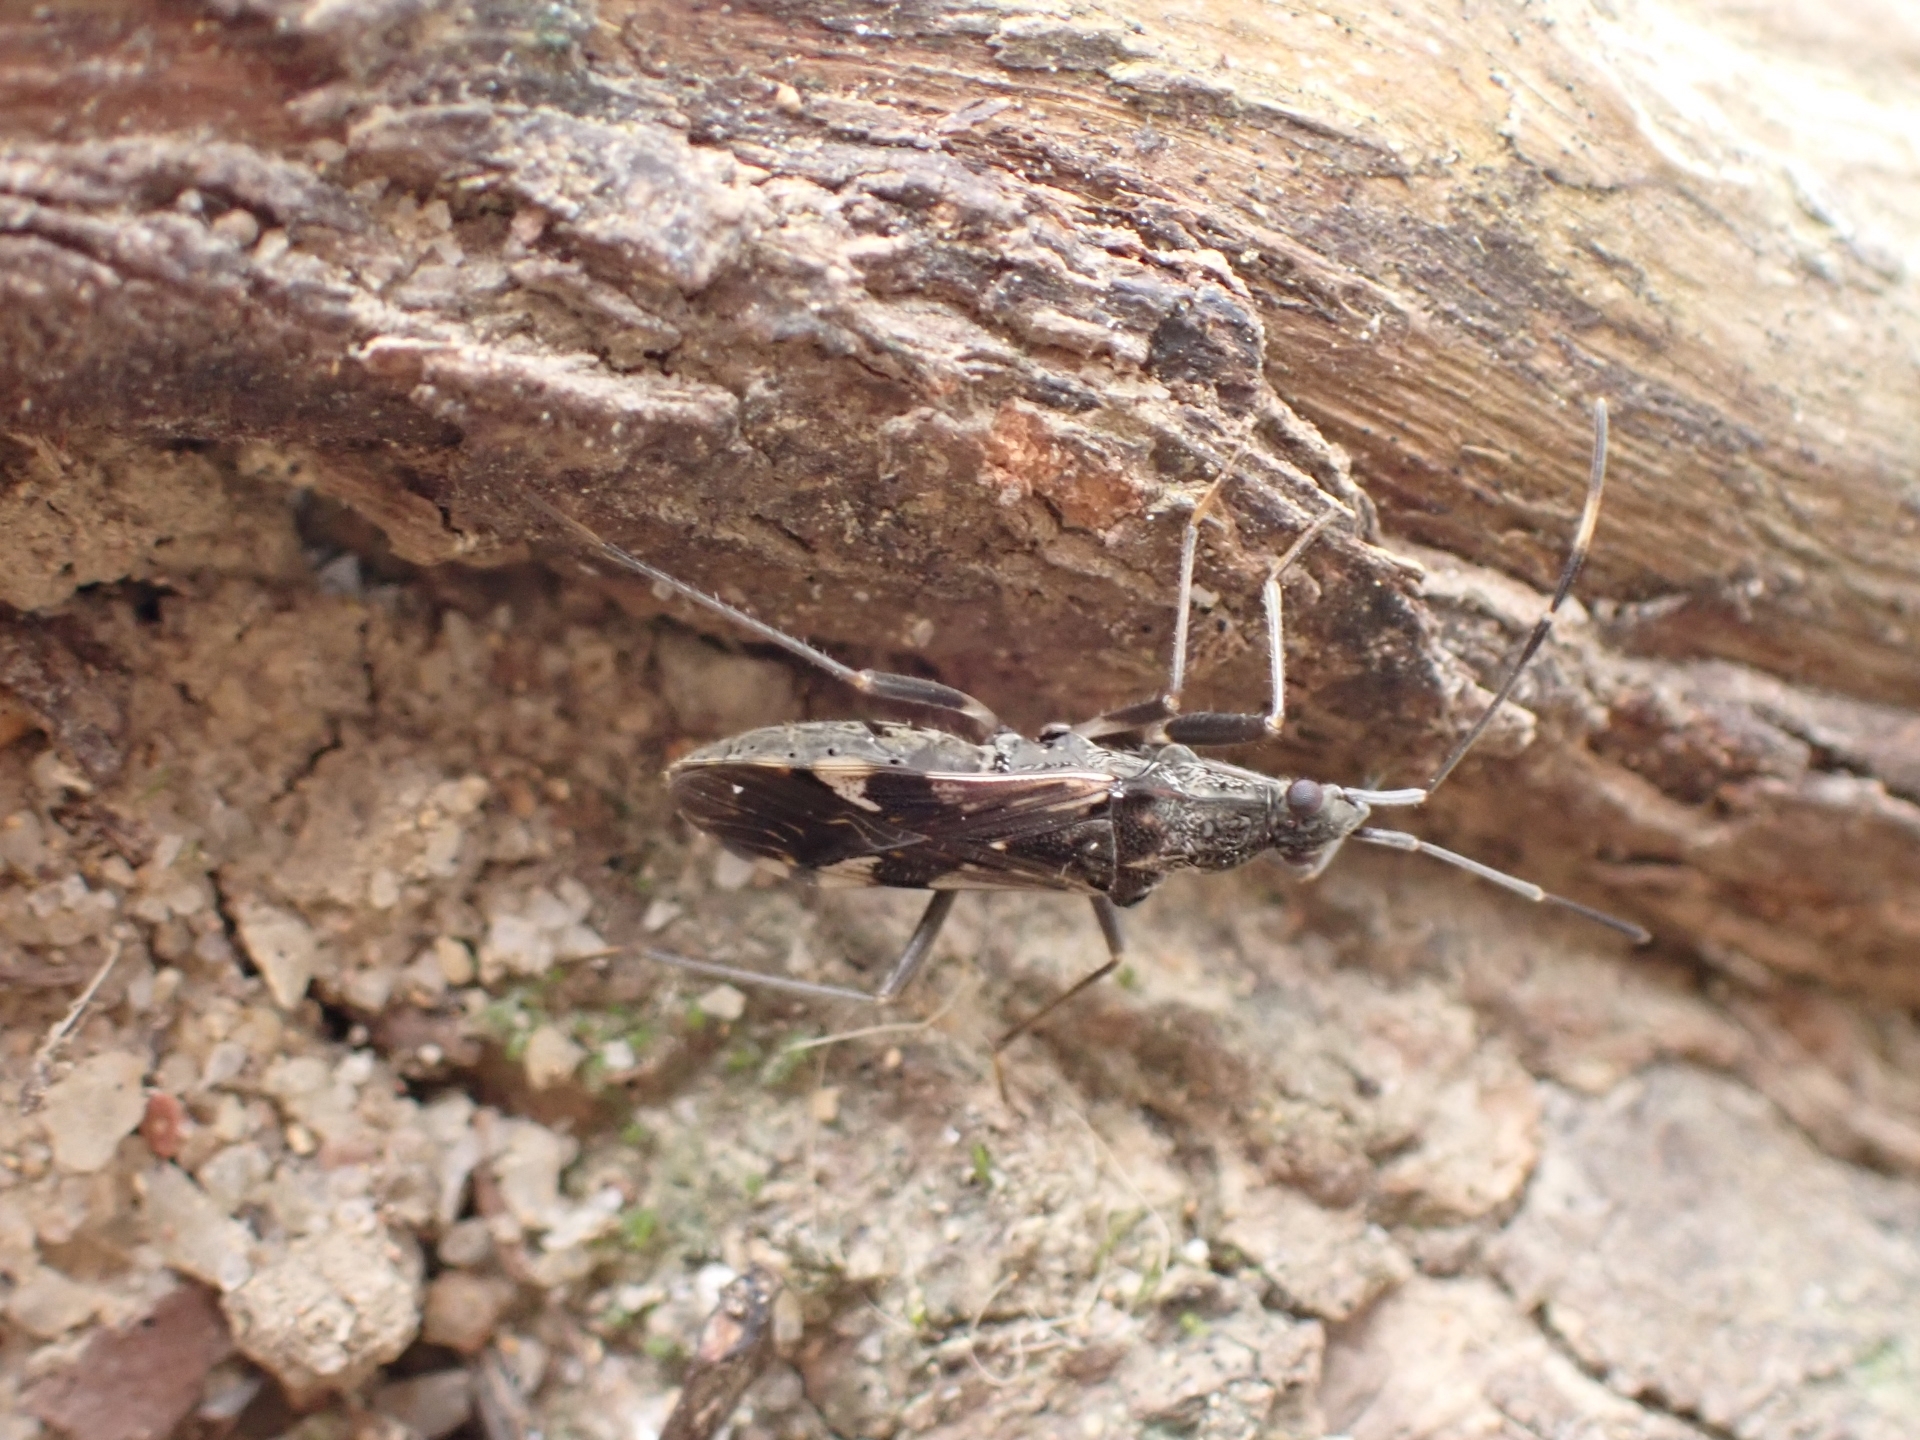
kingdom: Animalia
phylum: Arthropoda
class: Insecta
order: Hemiptera
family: Rhyparochromidae
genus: Metochus
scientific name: Metochus hainanensis
